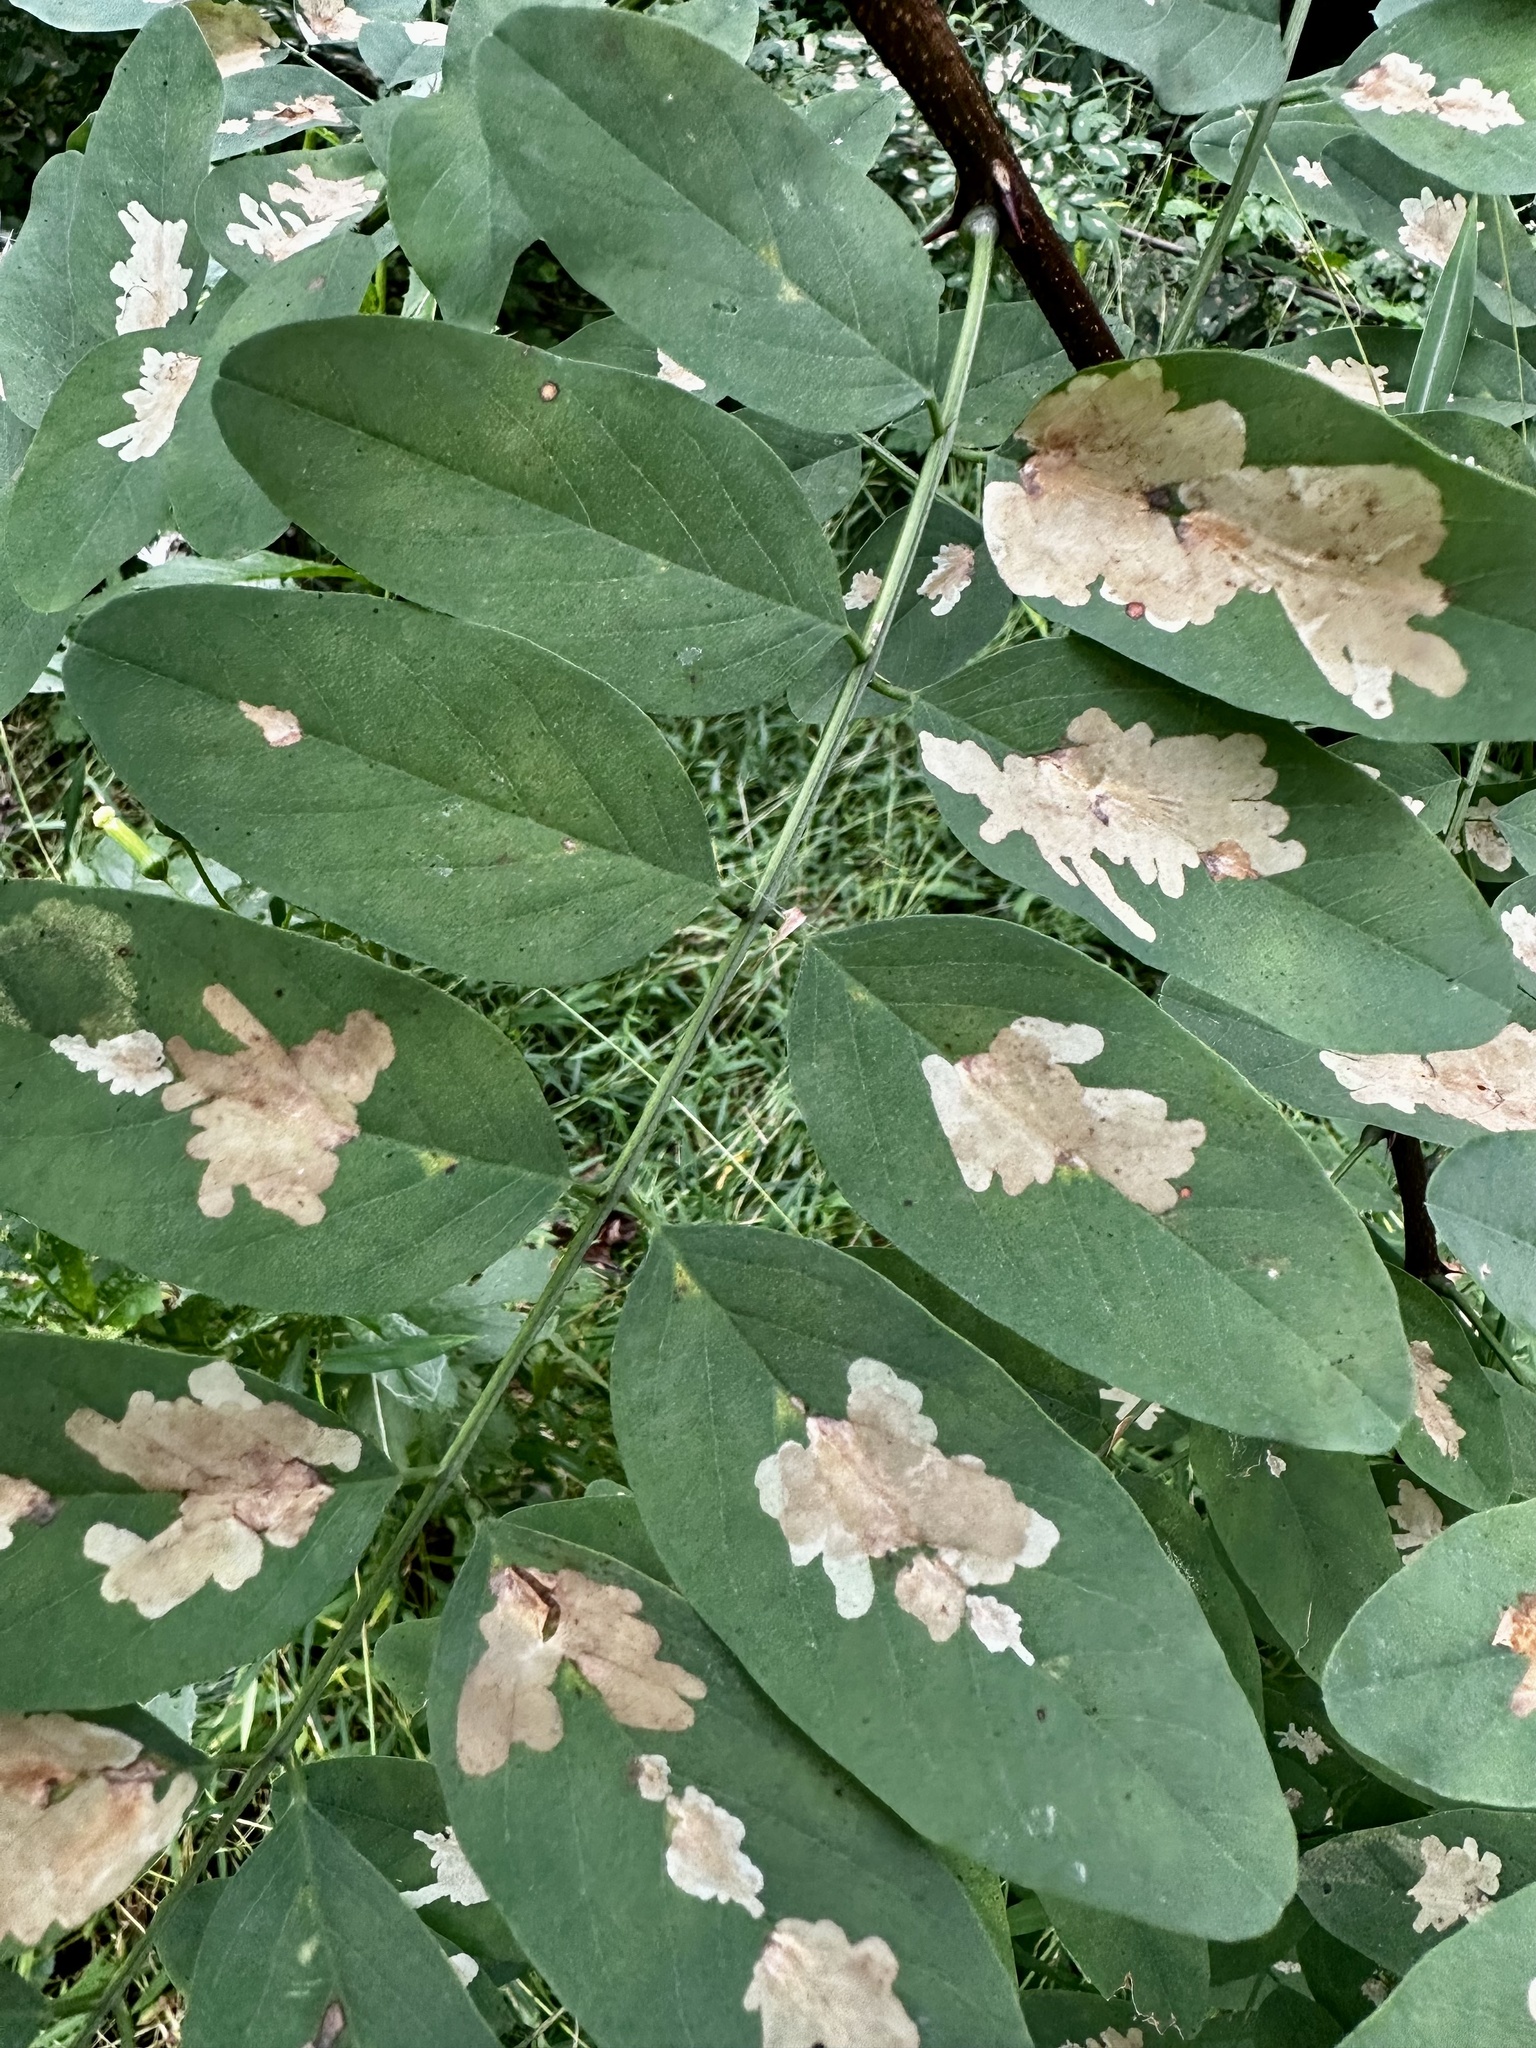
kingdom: Animalia
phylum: Arthropoda
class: Insecta
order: Lepidoptera
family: Gracillariidae
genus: Parectopa
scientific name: Parectopa robiniella
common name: Locust digitate leafminer
